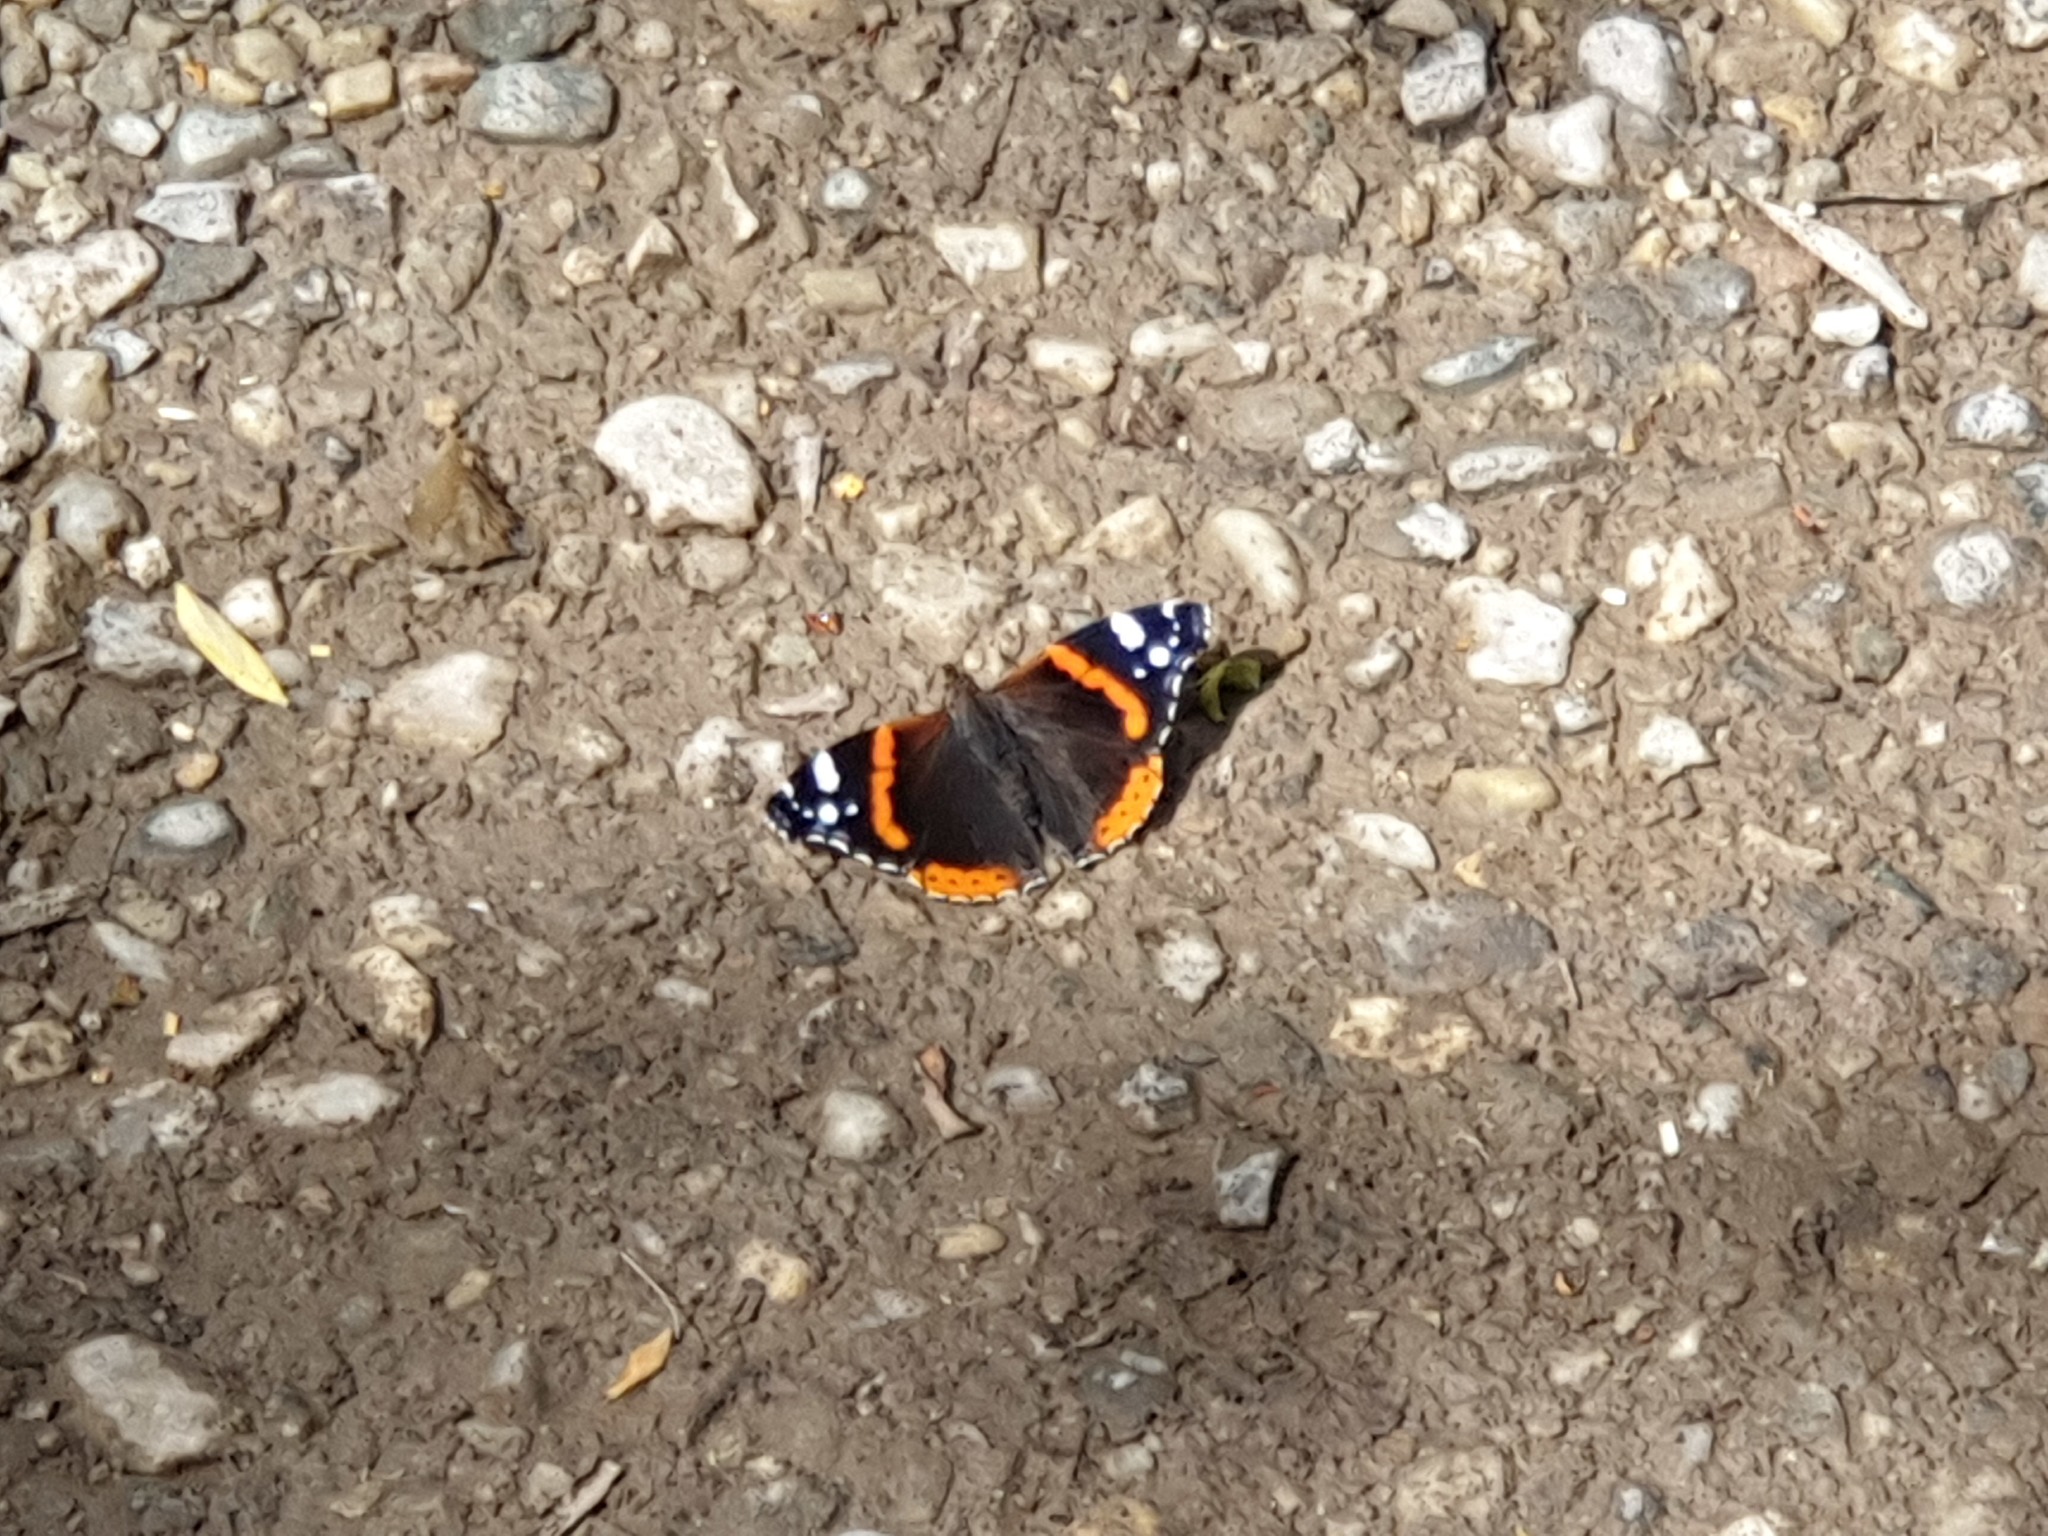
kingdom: Animalia
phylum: Arthropoda
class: Insecta
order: Lepidoptera
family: Nymphalidae
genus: Vanessa
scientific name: Vanessa atalanta
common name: Red admiral
